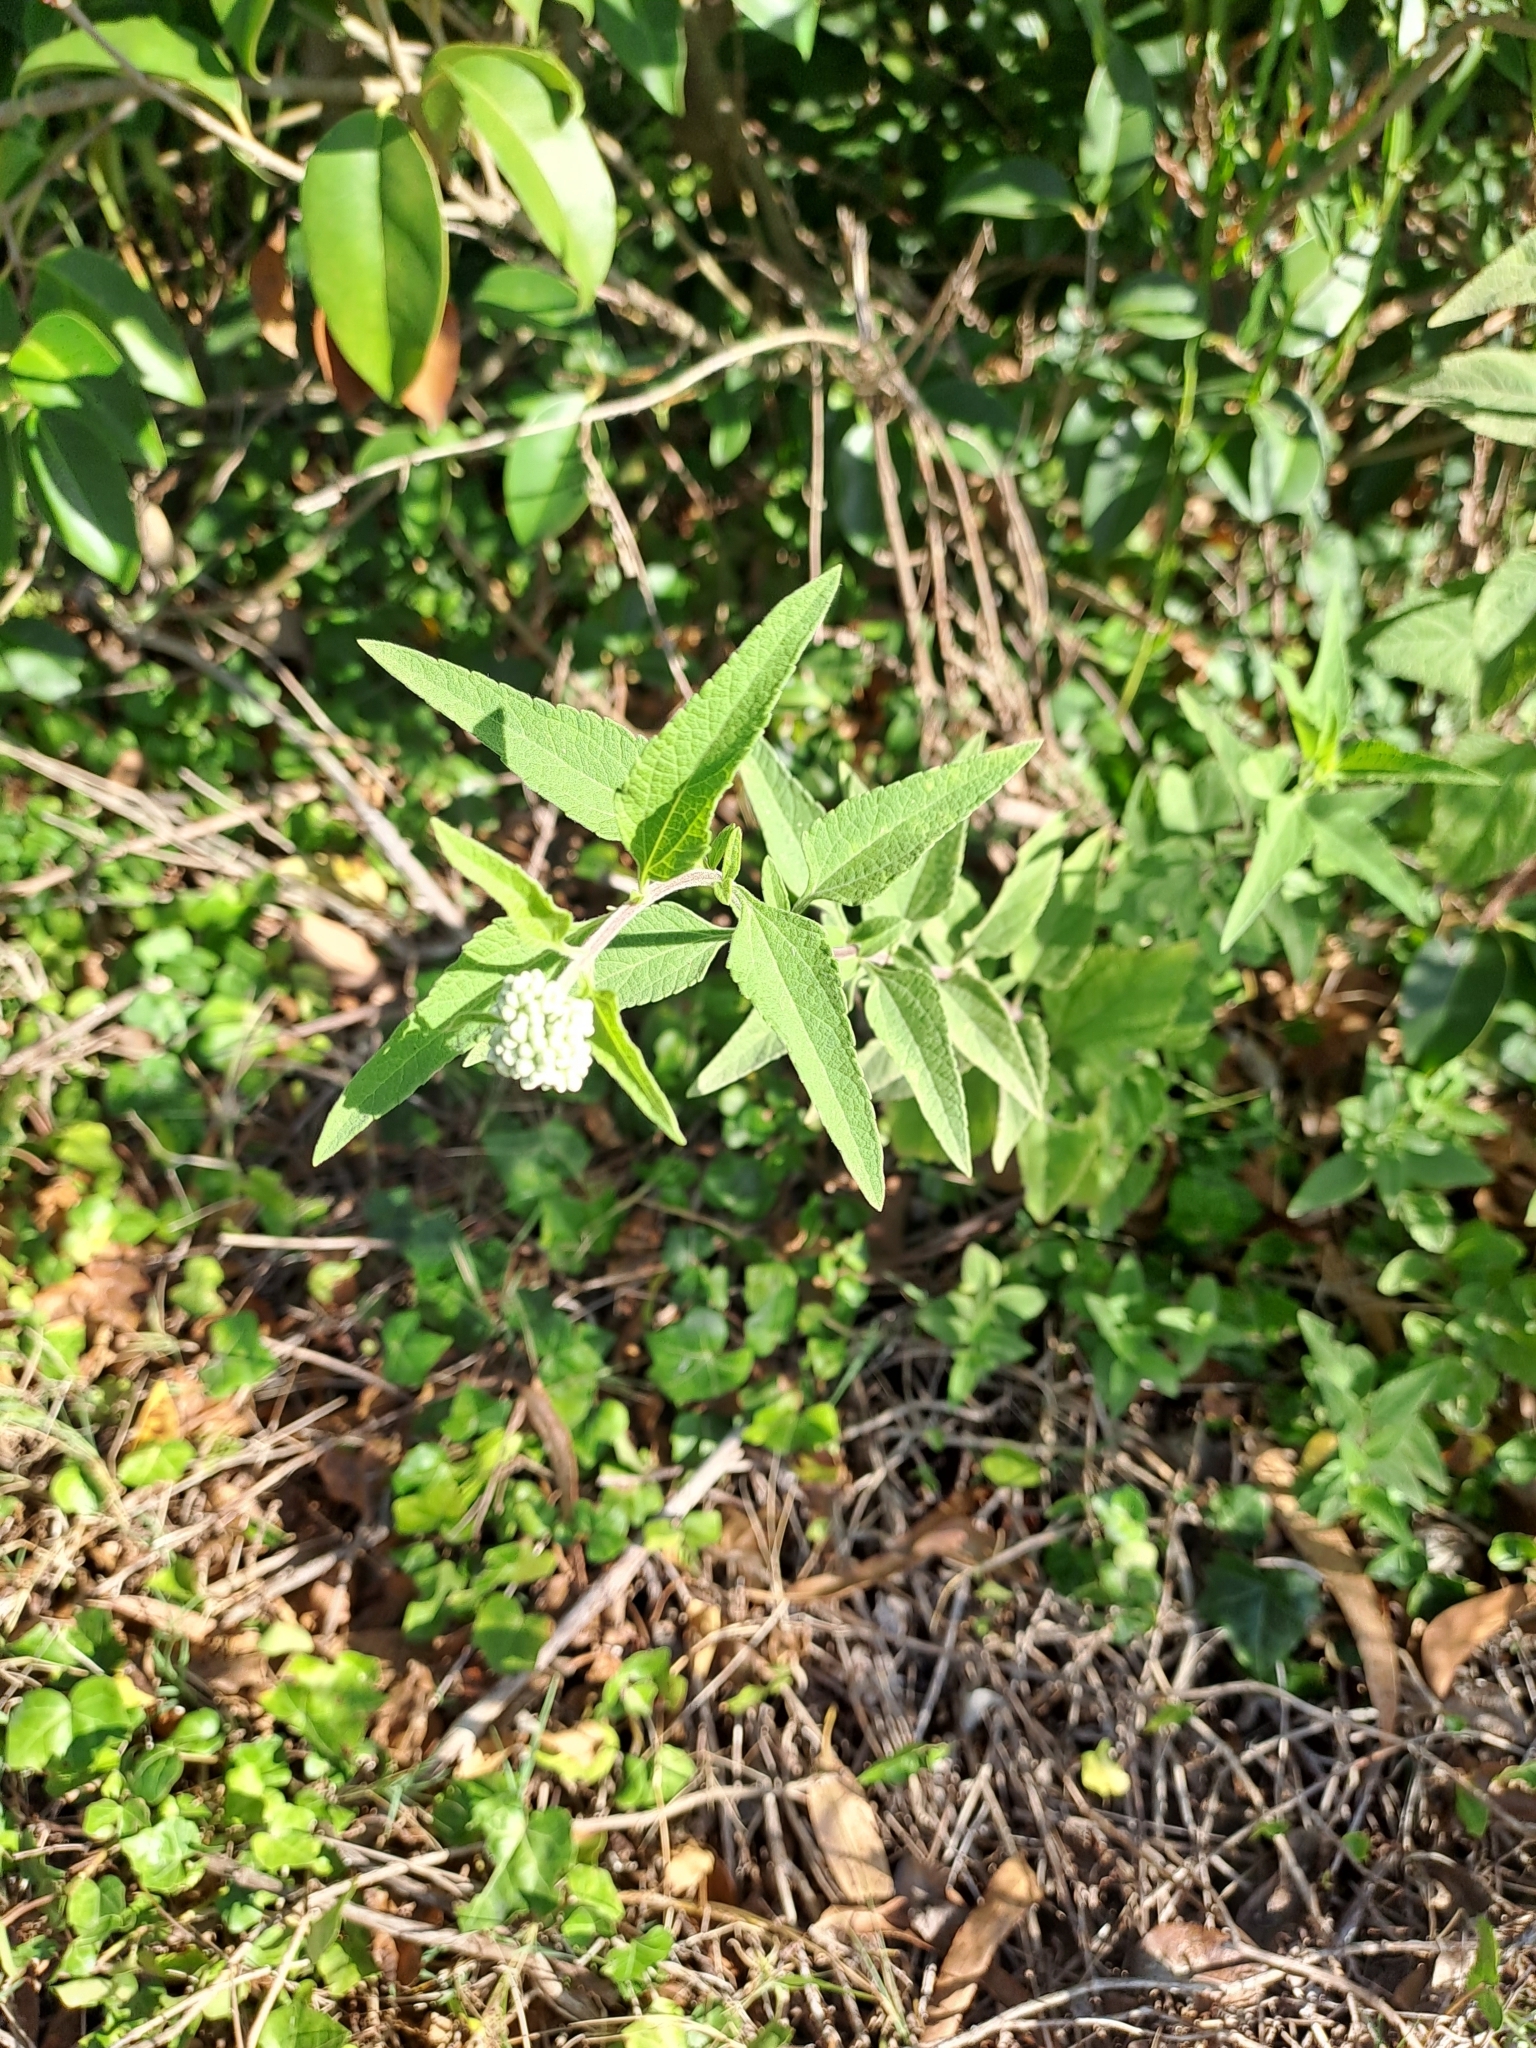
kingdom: Plantae
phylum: Tracheophyta
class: Magnoliopsida
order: Asterales
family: Asteraceae
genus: Austroeupatorium
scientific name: Austroeupatorium inulifolium
